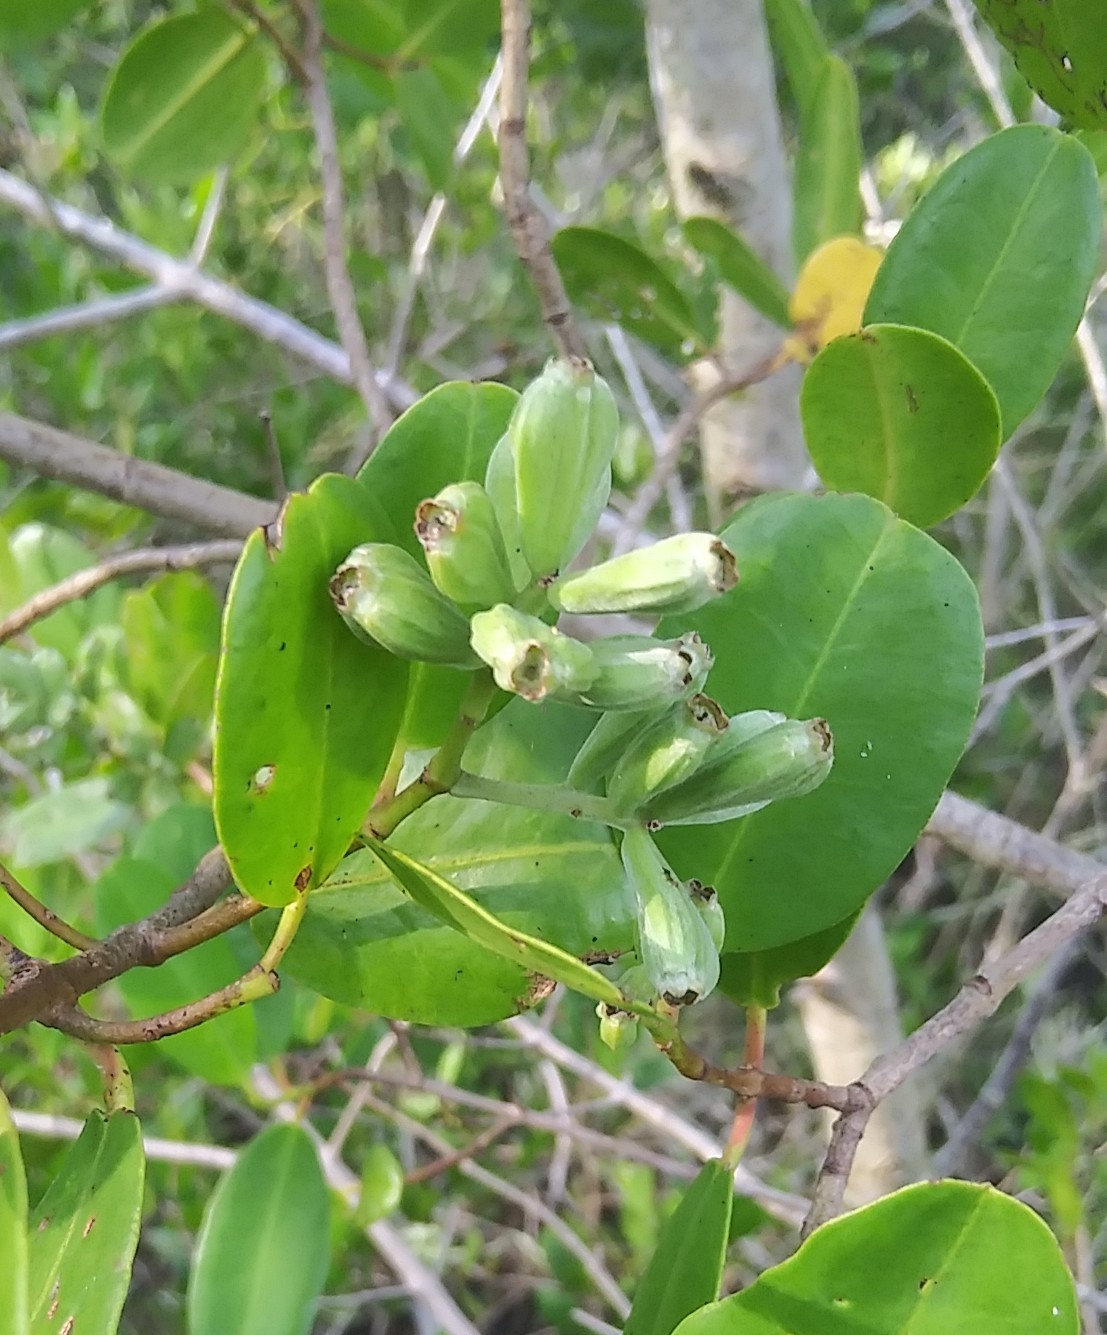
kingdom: Plantae
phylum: Tracheophyta
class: Magnoliopsida
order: Myrtales
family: Combretaceae
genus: Laguncularia
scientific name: Laguncularia racemosa
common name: White mangrove
